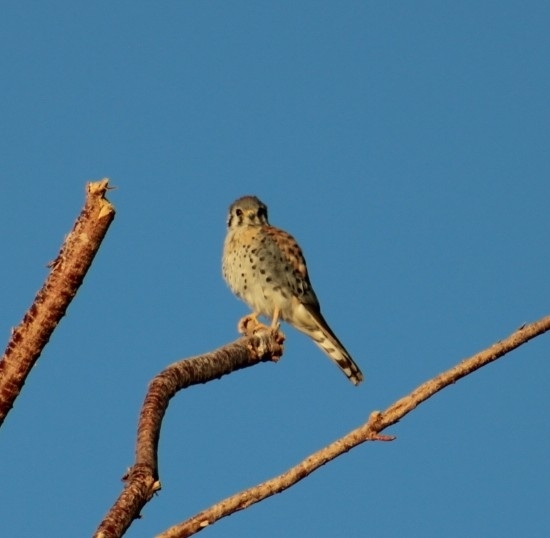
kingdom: Animalia
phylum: Chordata
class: Aves
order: Falconiformes
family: Falconidae
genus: Falco
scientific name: Falco sparverius
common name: American kestrel
